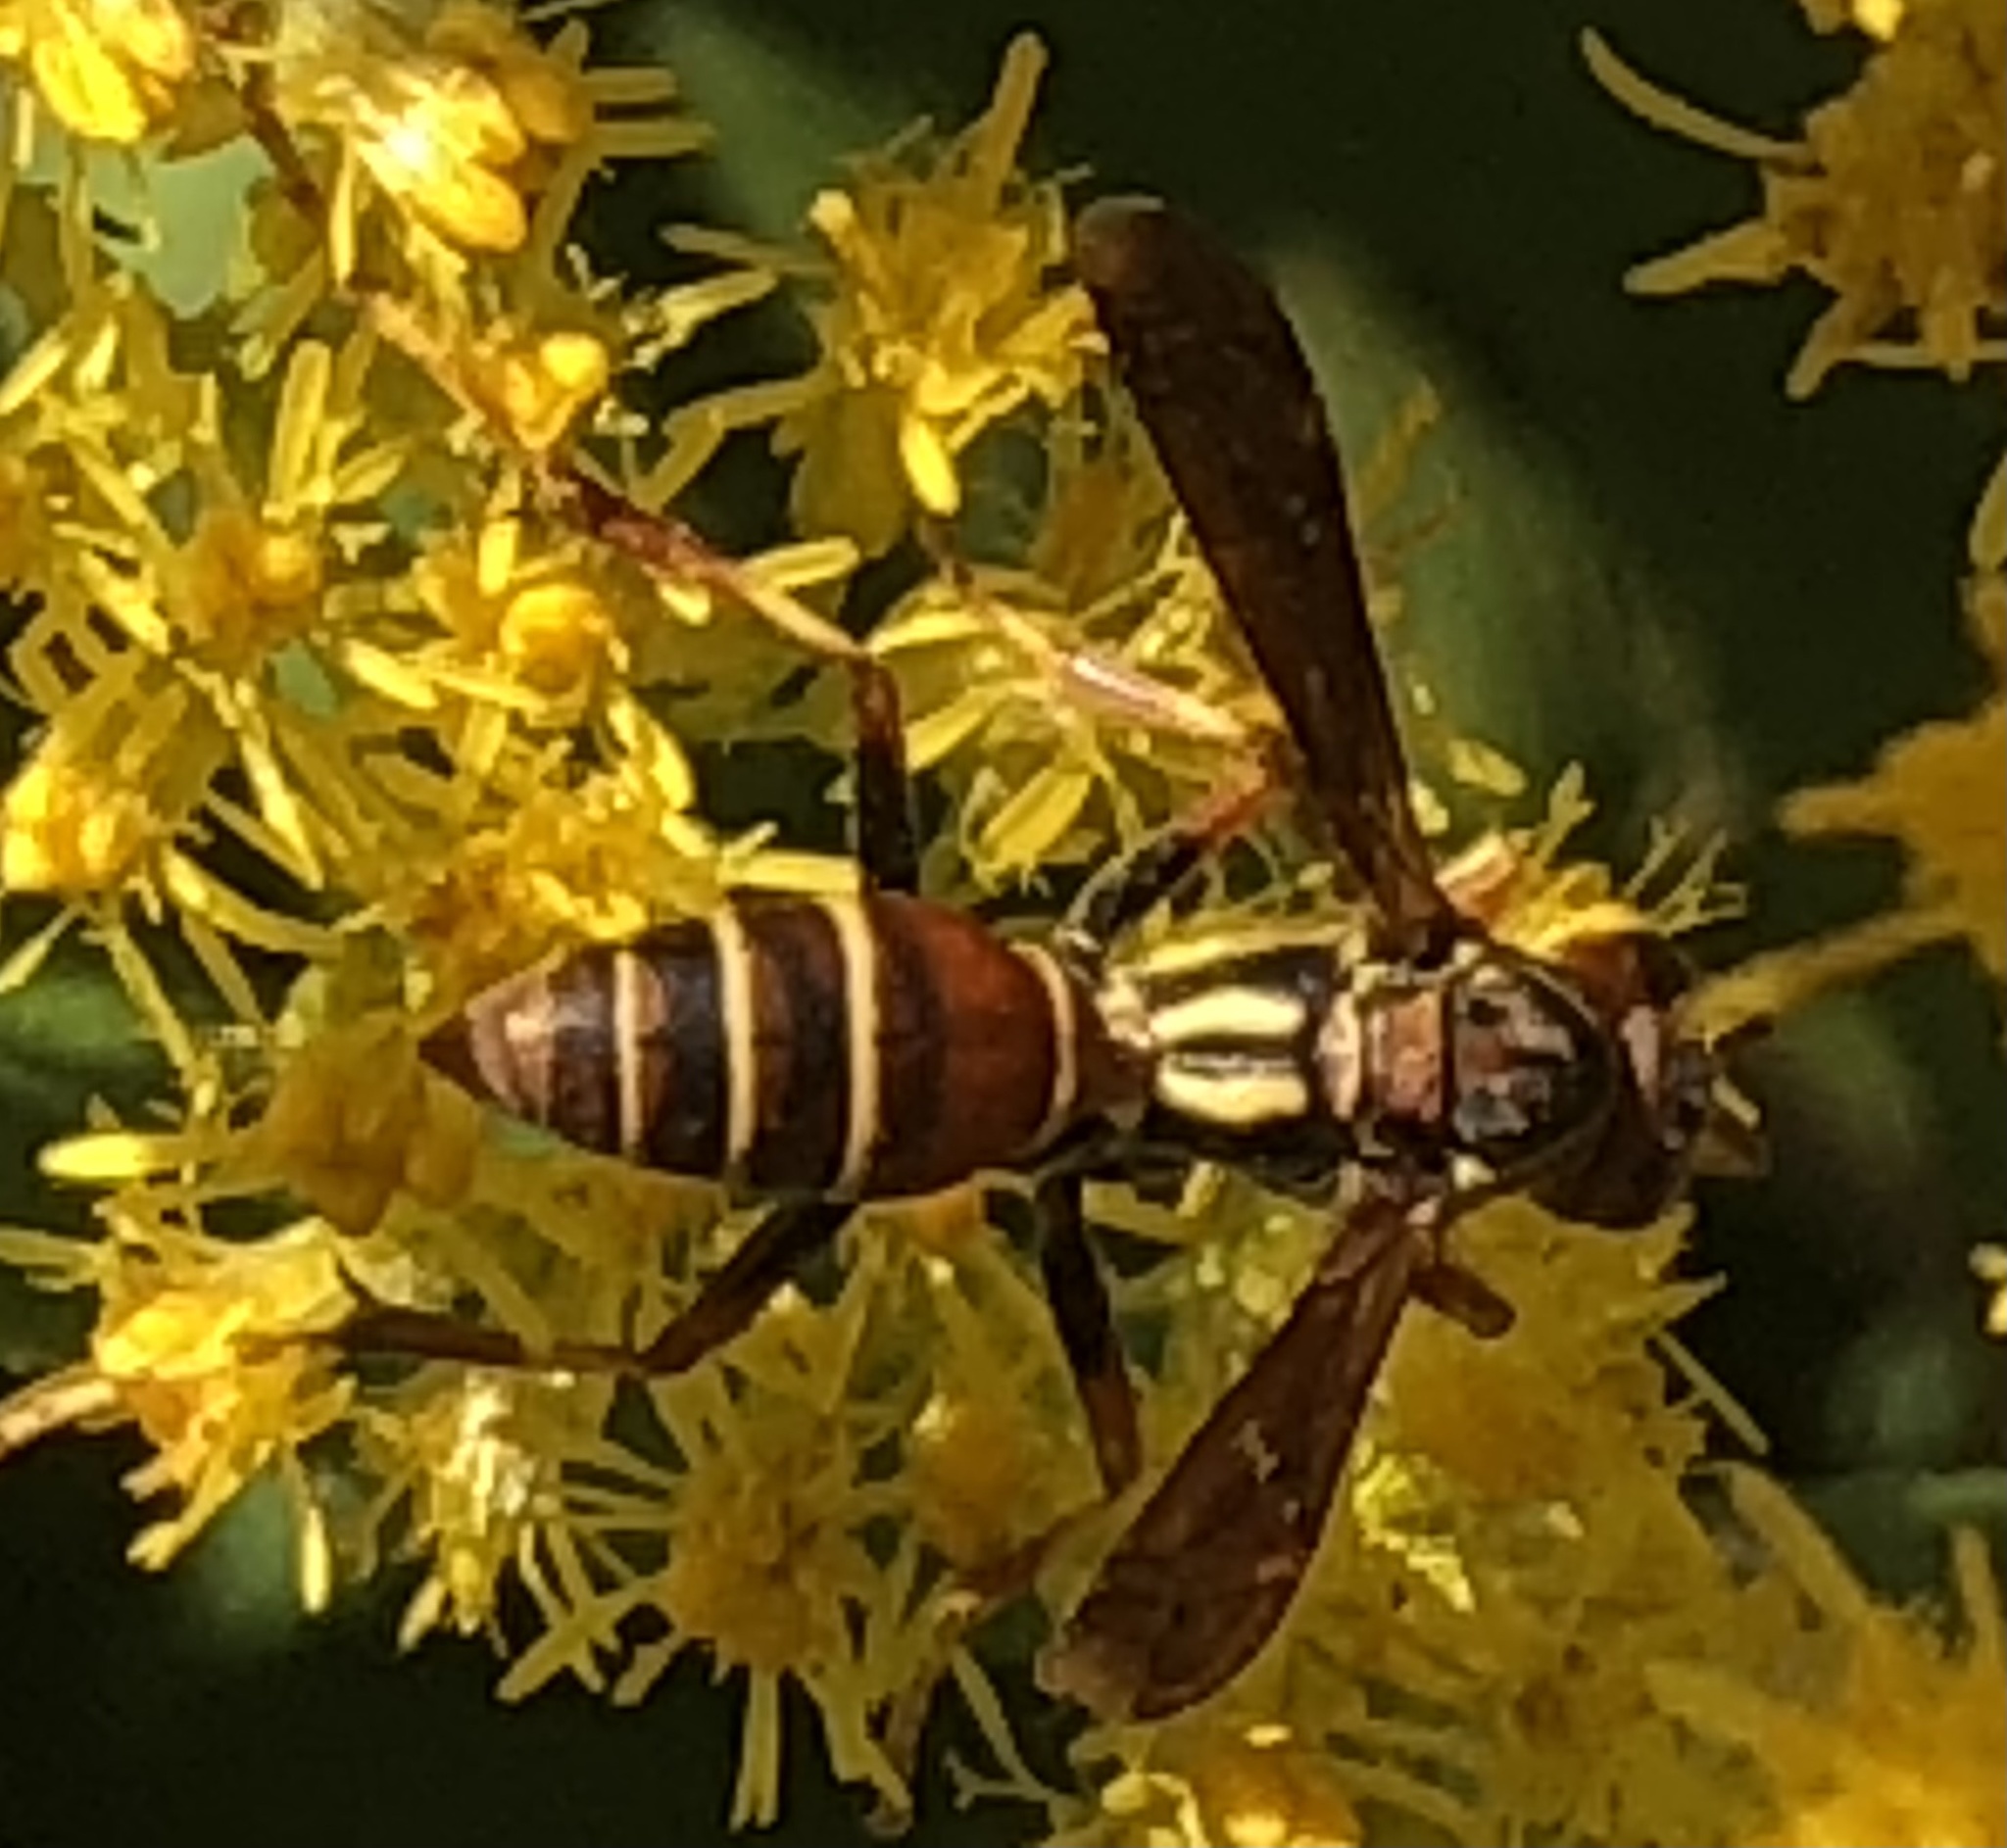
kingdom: Animalia
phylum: Arthropoda
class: Insecta
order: Hymenoptera
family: Eumenidae
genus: Polistes
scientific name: Polistes fuscatus
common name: Dark paper wasp
